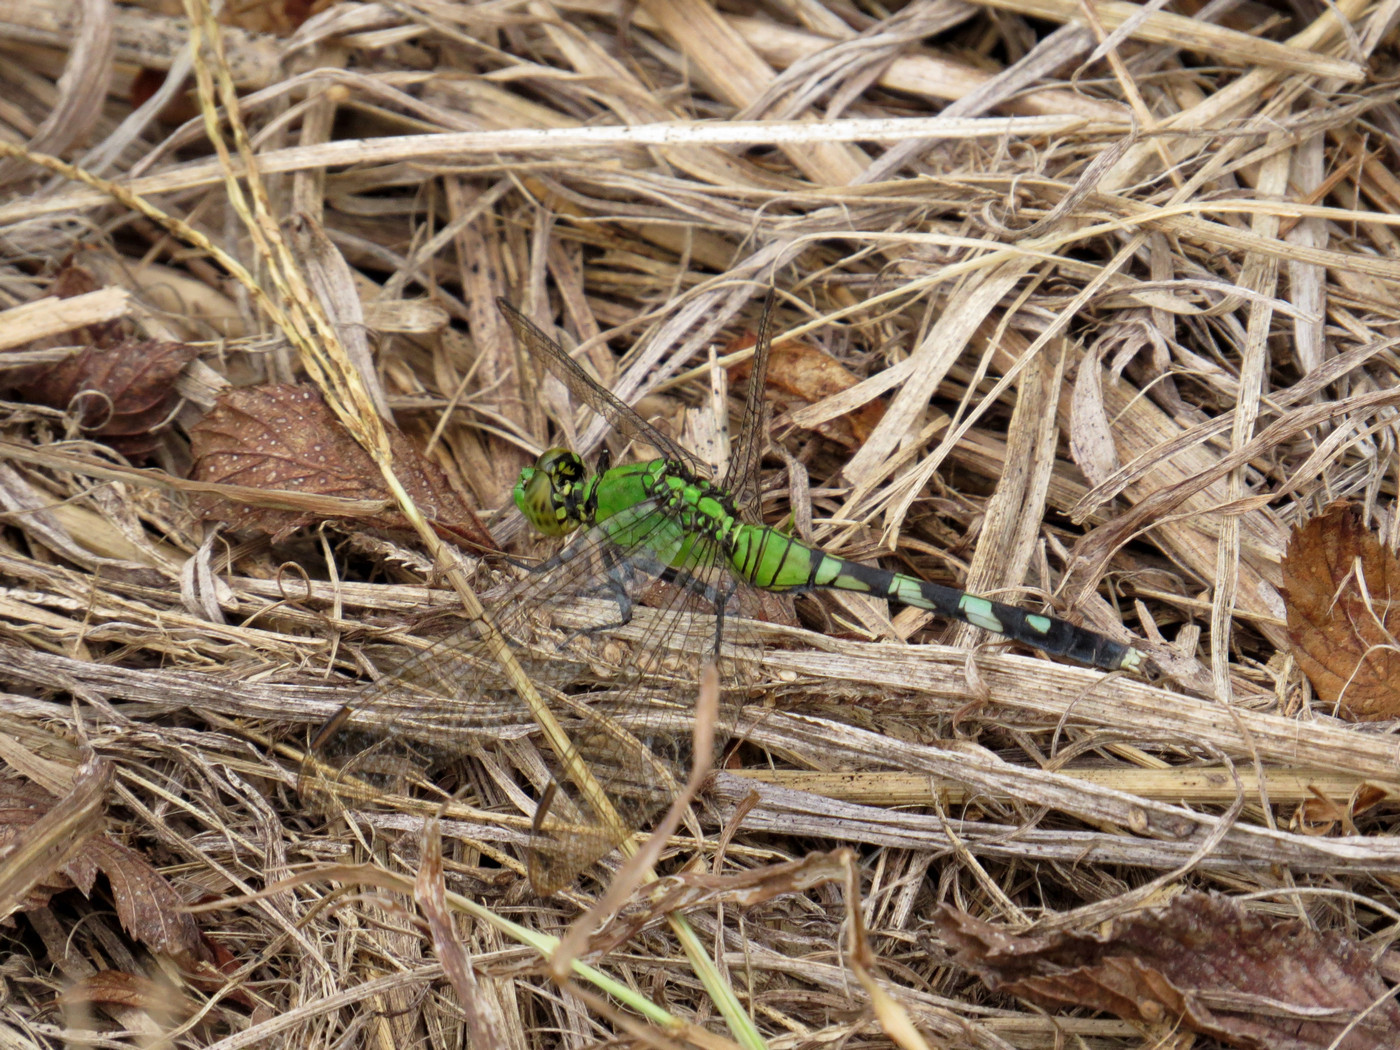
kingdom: Animalia
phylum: Arthropoda
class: Insecta
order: Odonata
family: Libellulidae
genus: Erythemis
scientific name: Erythemis simplicicollis
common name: Eastern pondhawk
